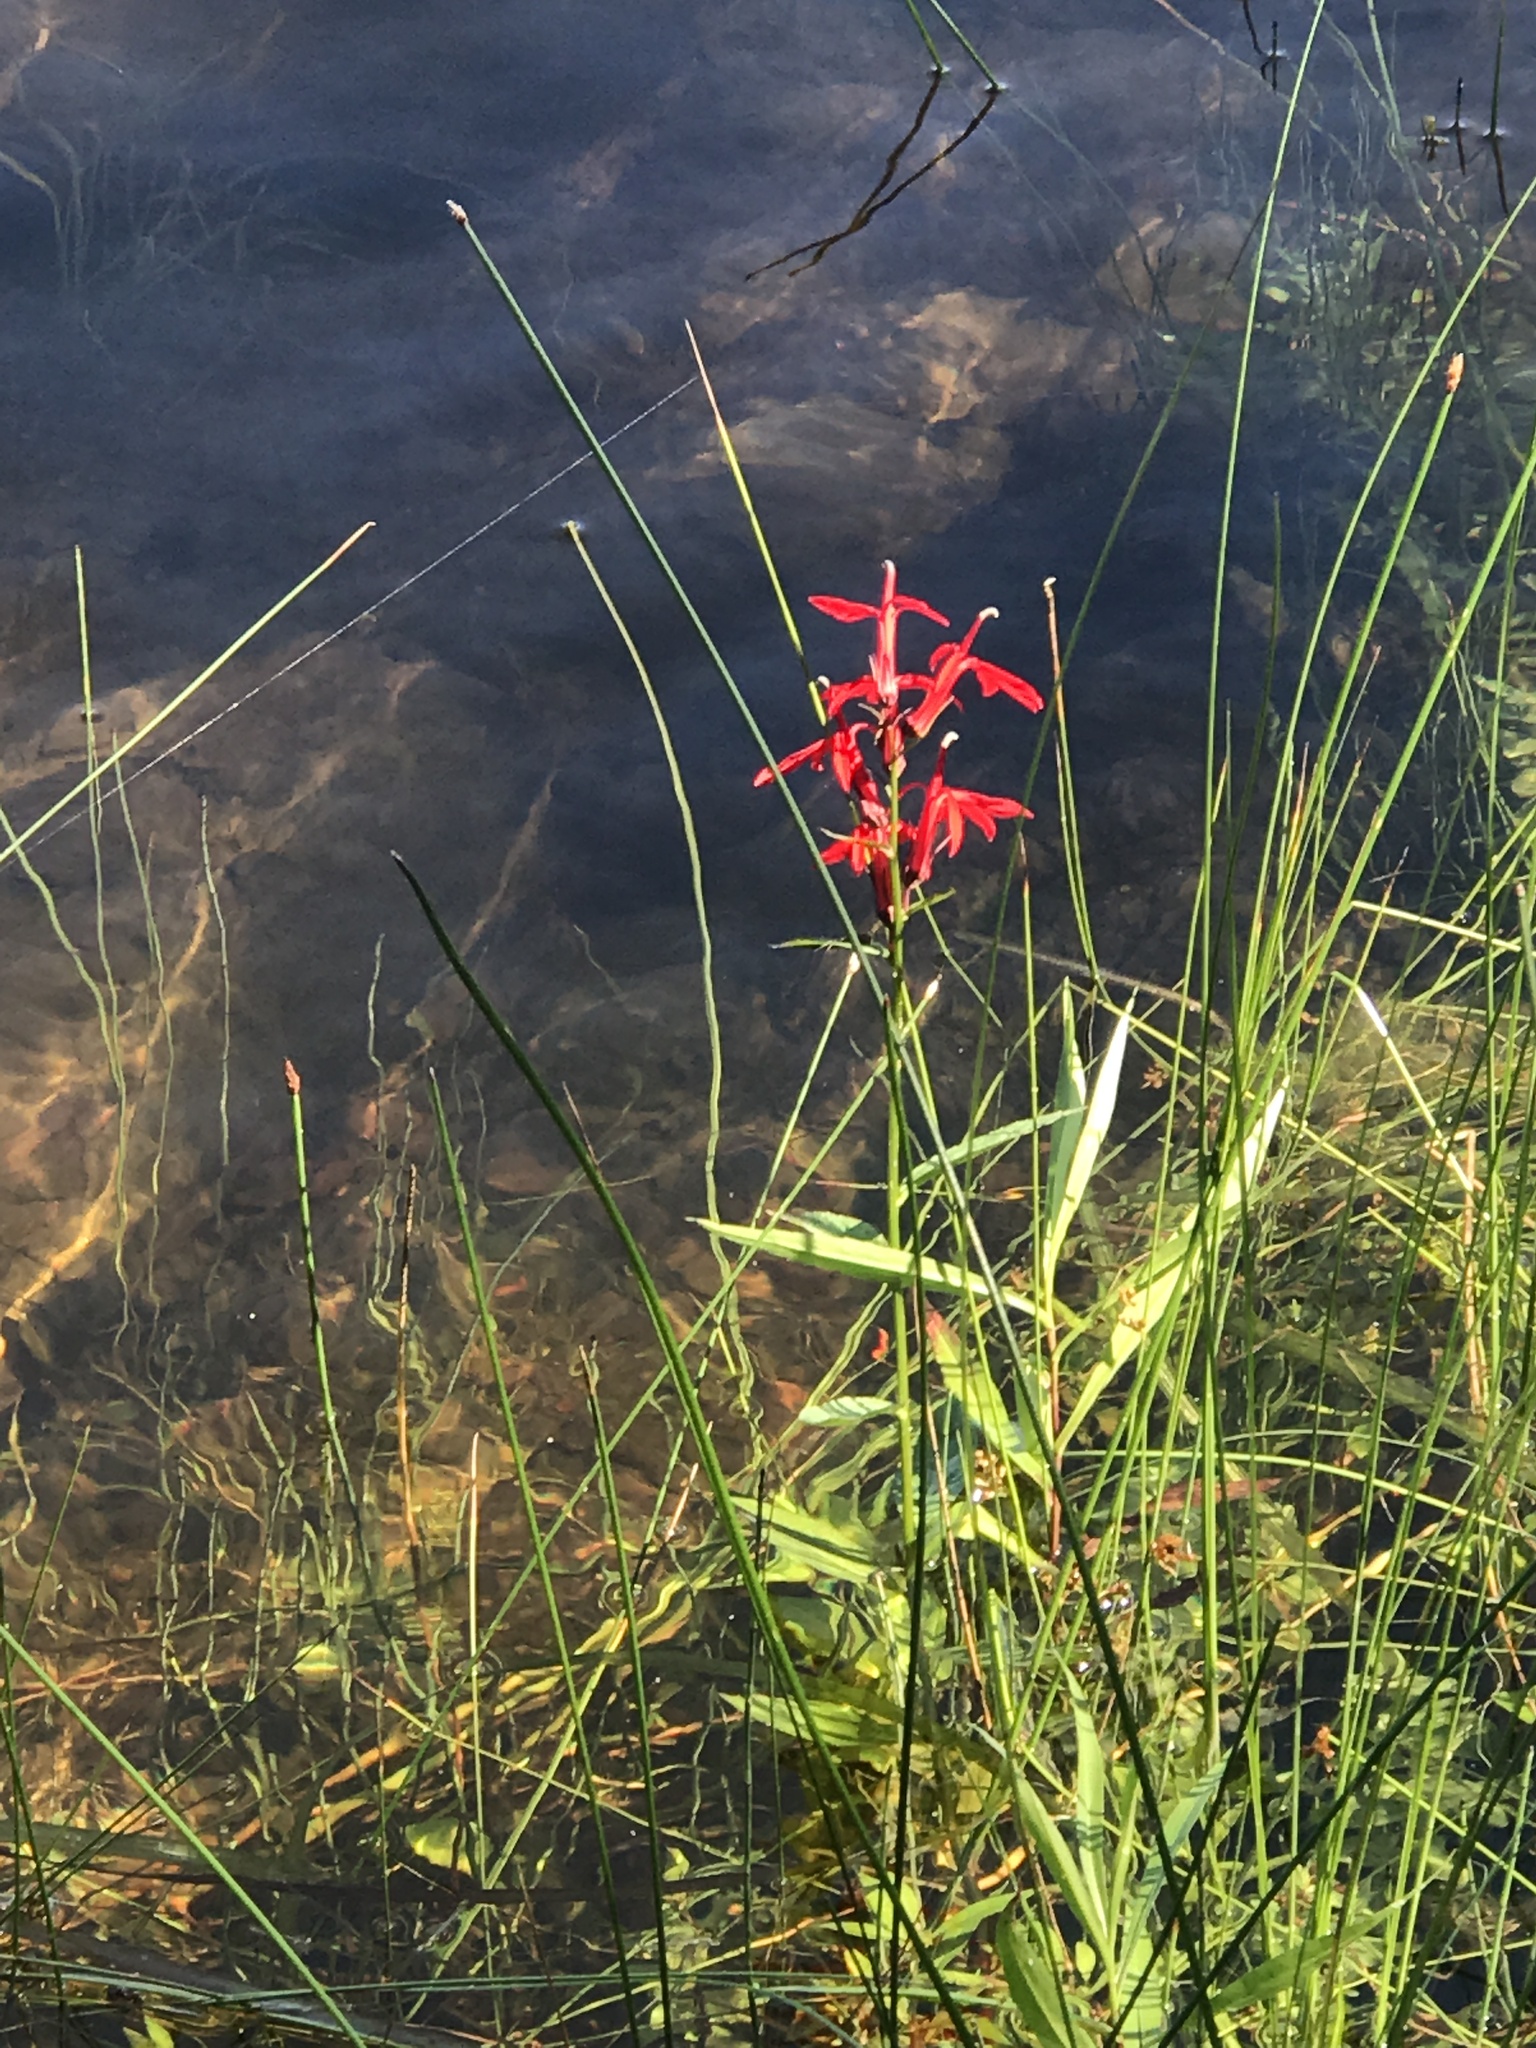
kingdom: Plantae
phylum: Tracheophyta
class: Magnoliopsida
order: Asterales
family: Campanulaceae
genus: Lobelia
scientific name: Lobelia cardinalis
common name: Cardinal flower
